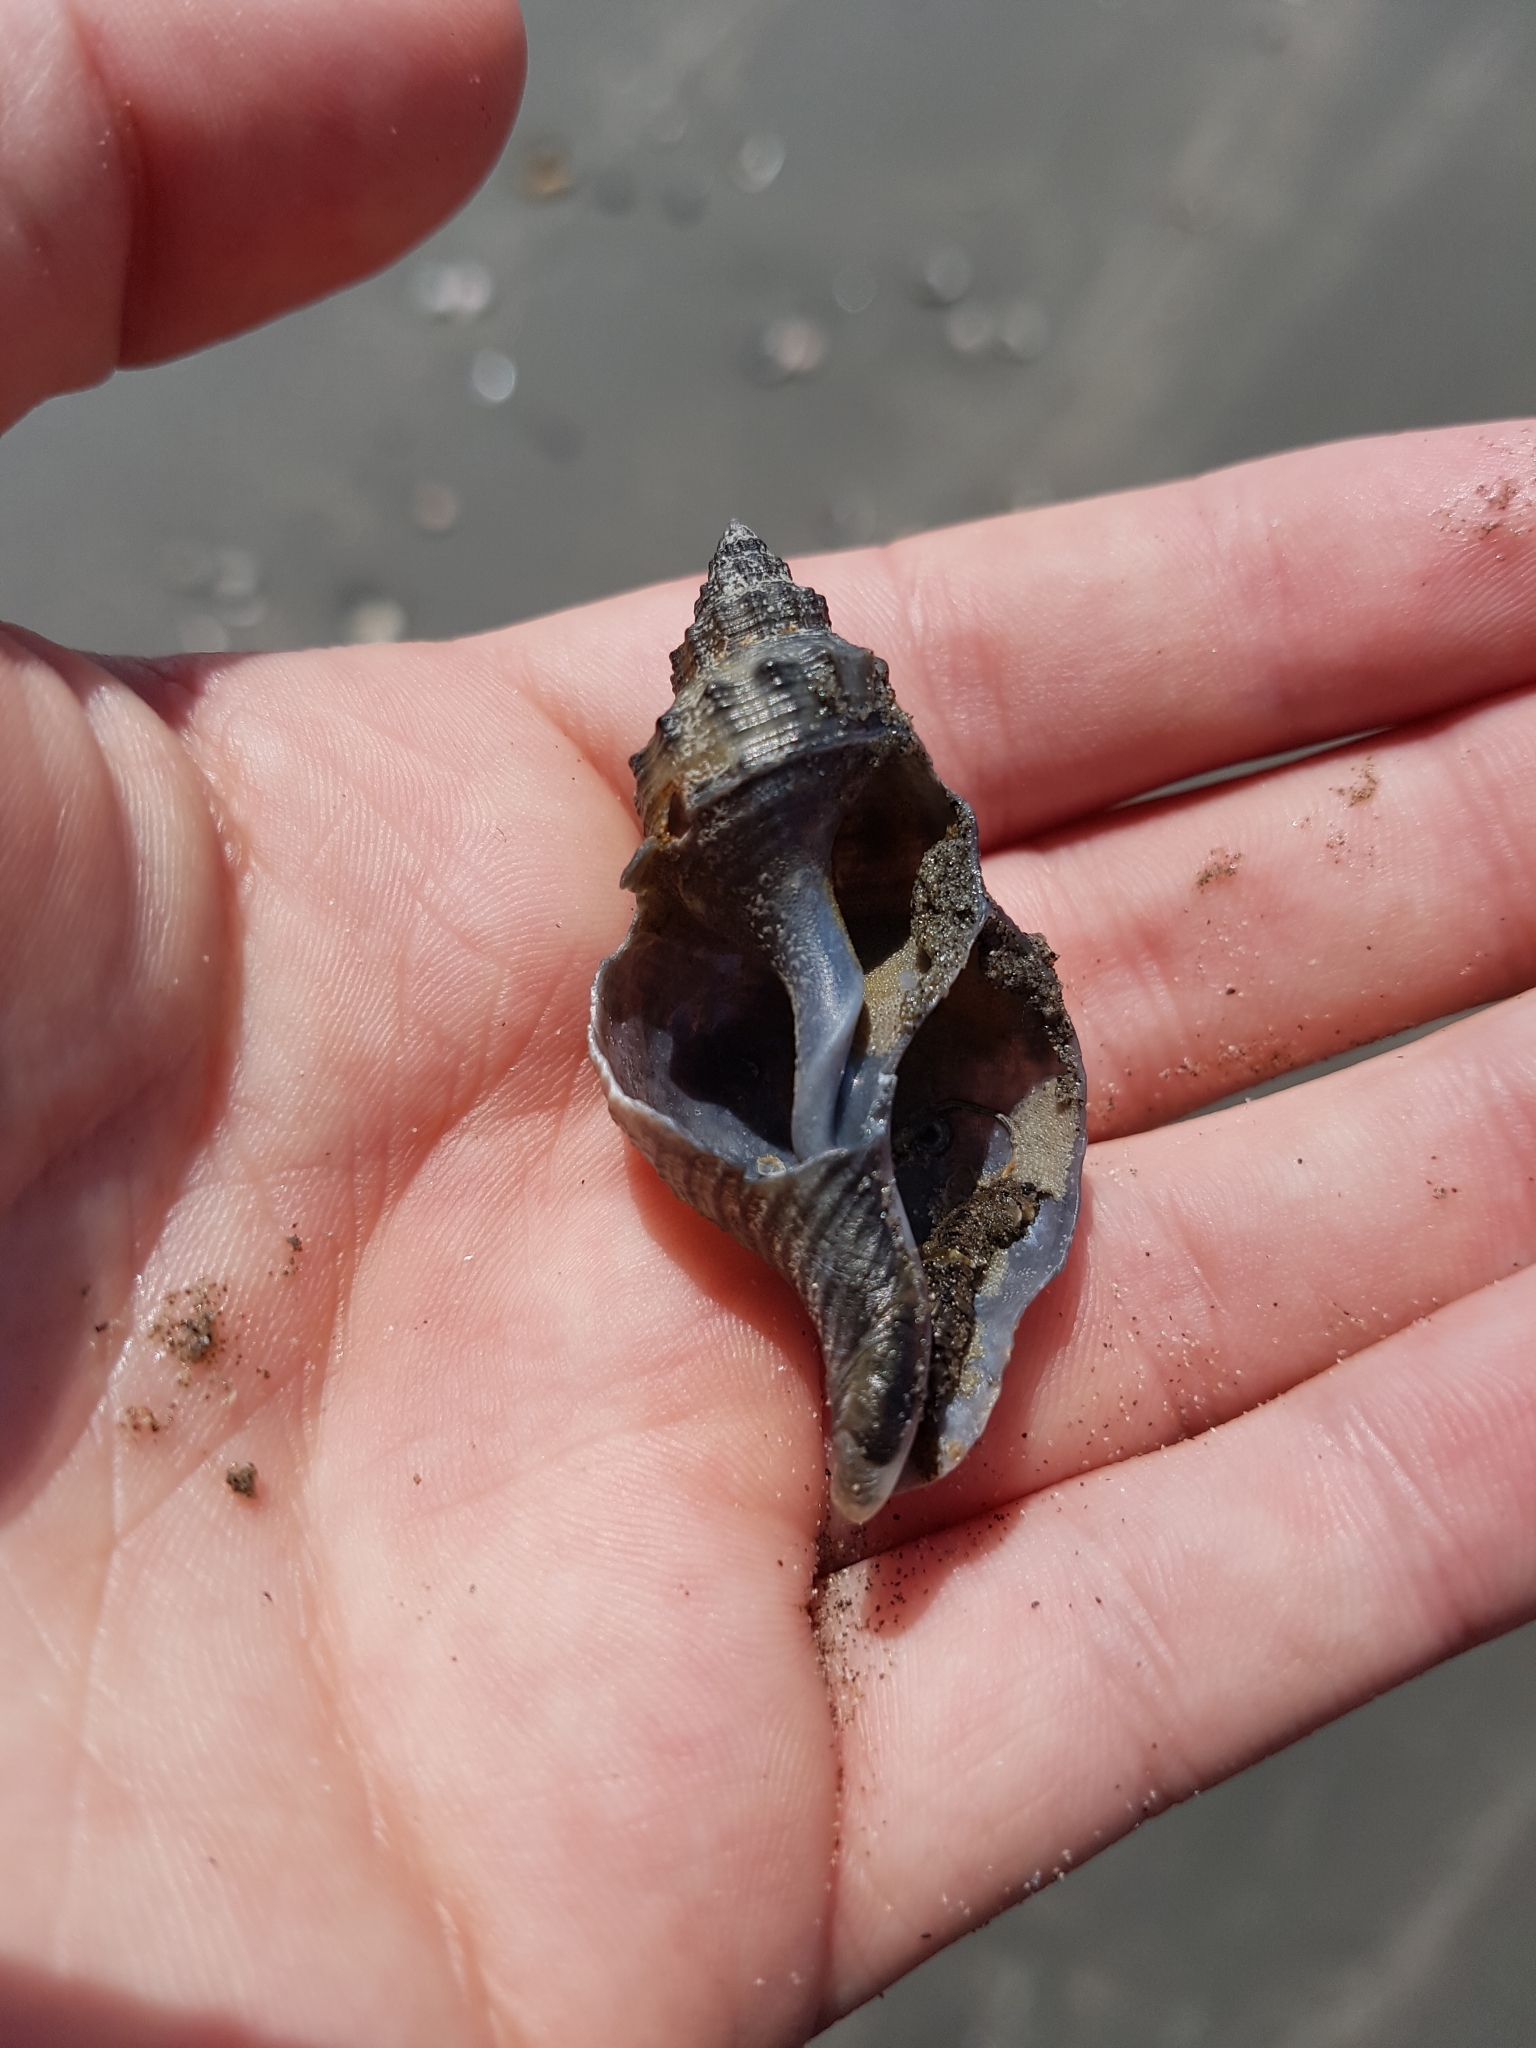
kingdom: Animalia
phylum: Mollusca
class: Gastropoda
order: Neogastropoda
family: Prosiphonidae
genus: Austrofusus
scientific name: Austrofusus glans
